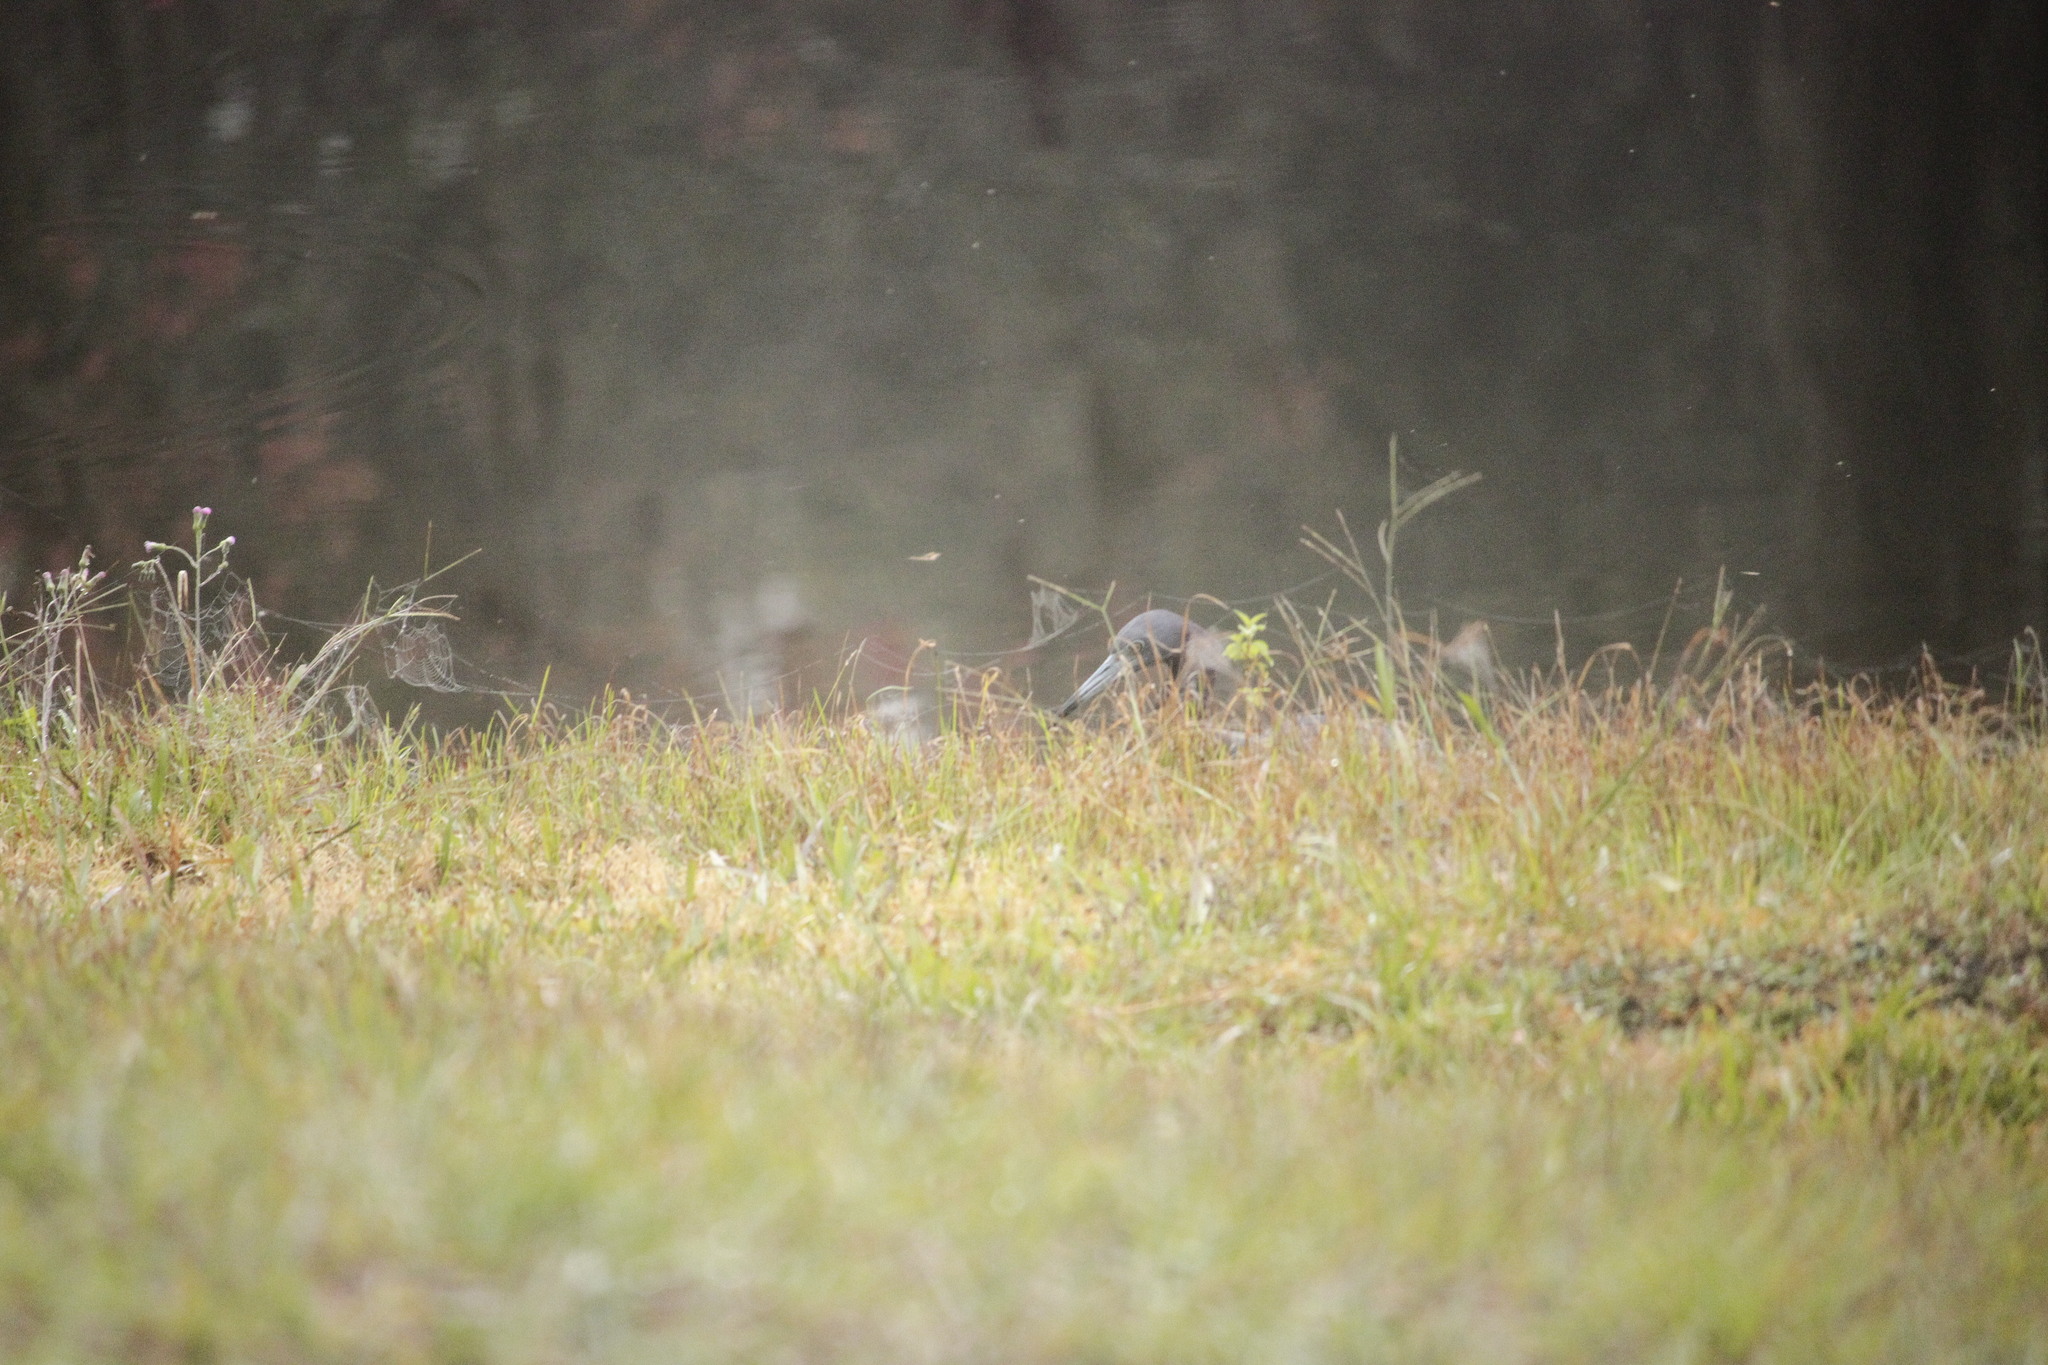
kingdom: Animalia
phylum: Chordata
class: Aves
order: Pelecaniformes
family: Ardeidae
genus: Egretta
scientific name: Egretta caerulea
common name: Little blue heron
